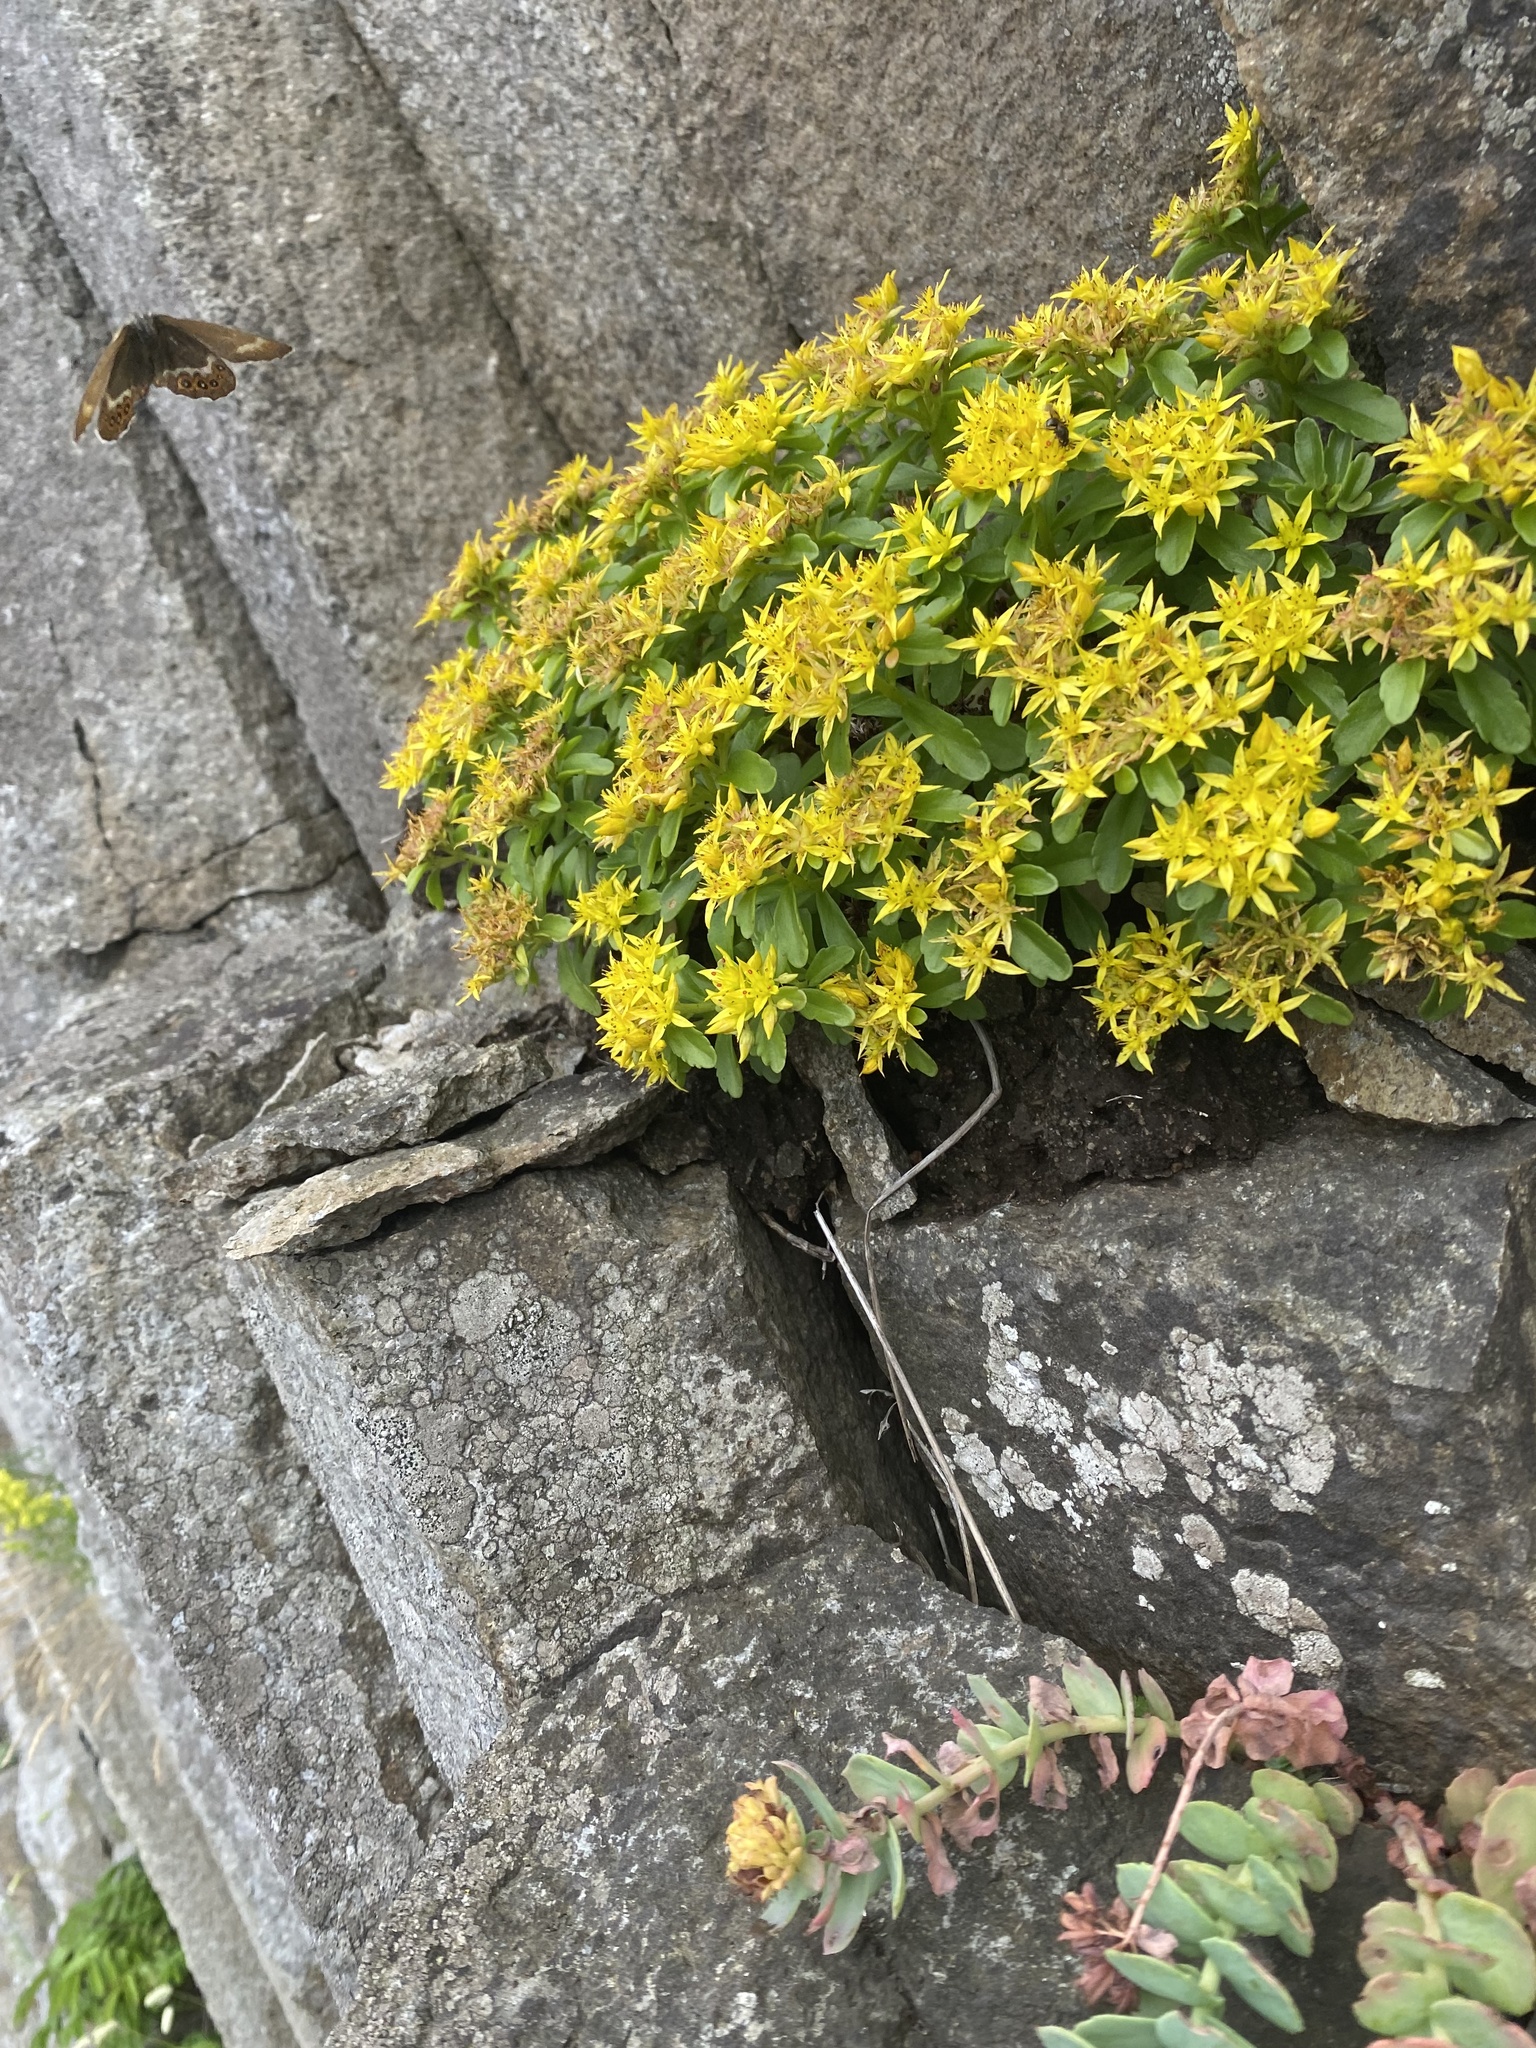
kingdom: Plantae
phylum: Tracheophyta
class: Magnoliopsida
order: Saxifragales
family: Crassulaceae
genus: Phedimus
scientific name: Phedimus kamtschaticus
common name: Orange stonecrop
